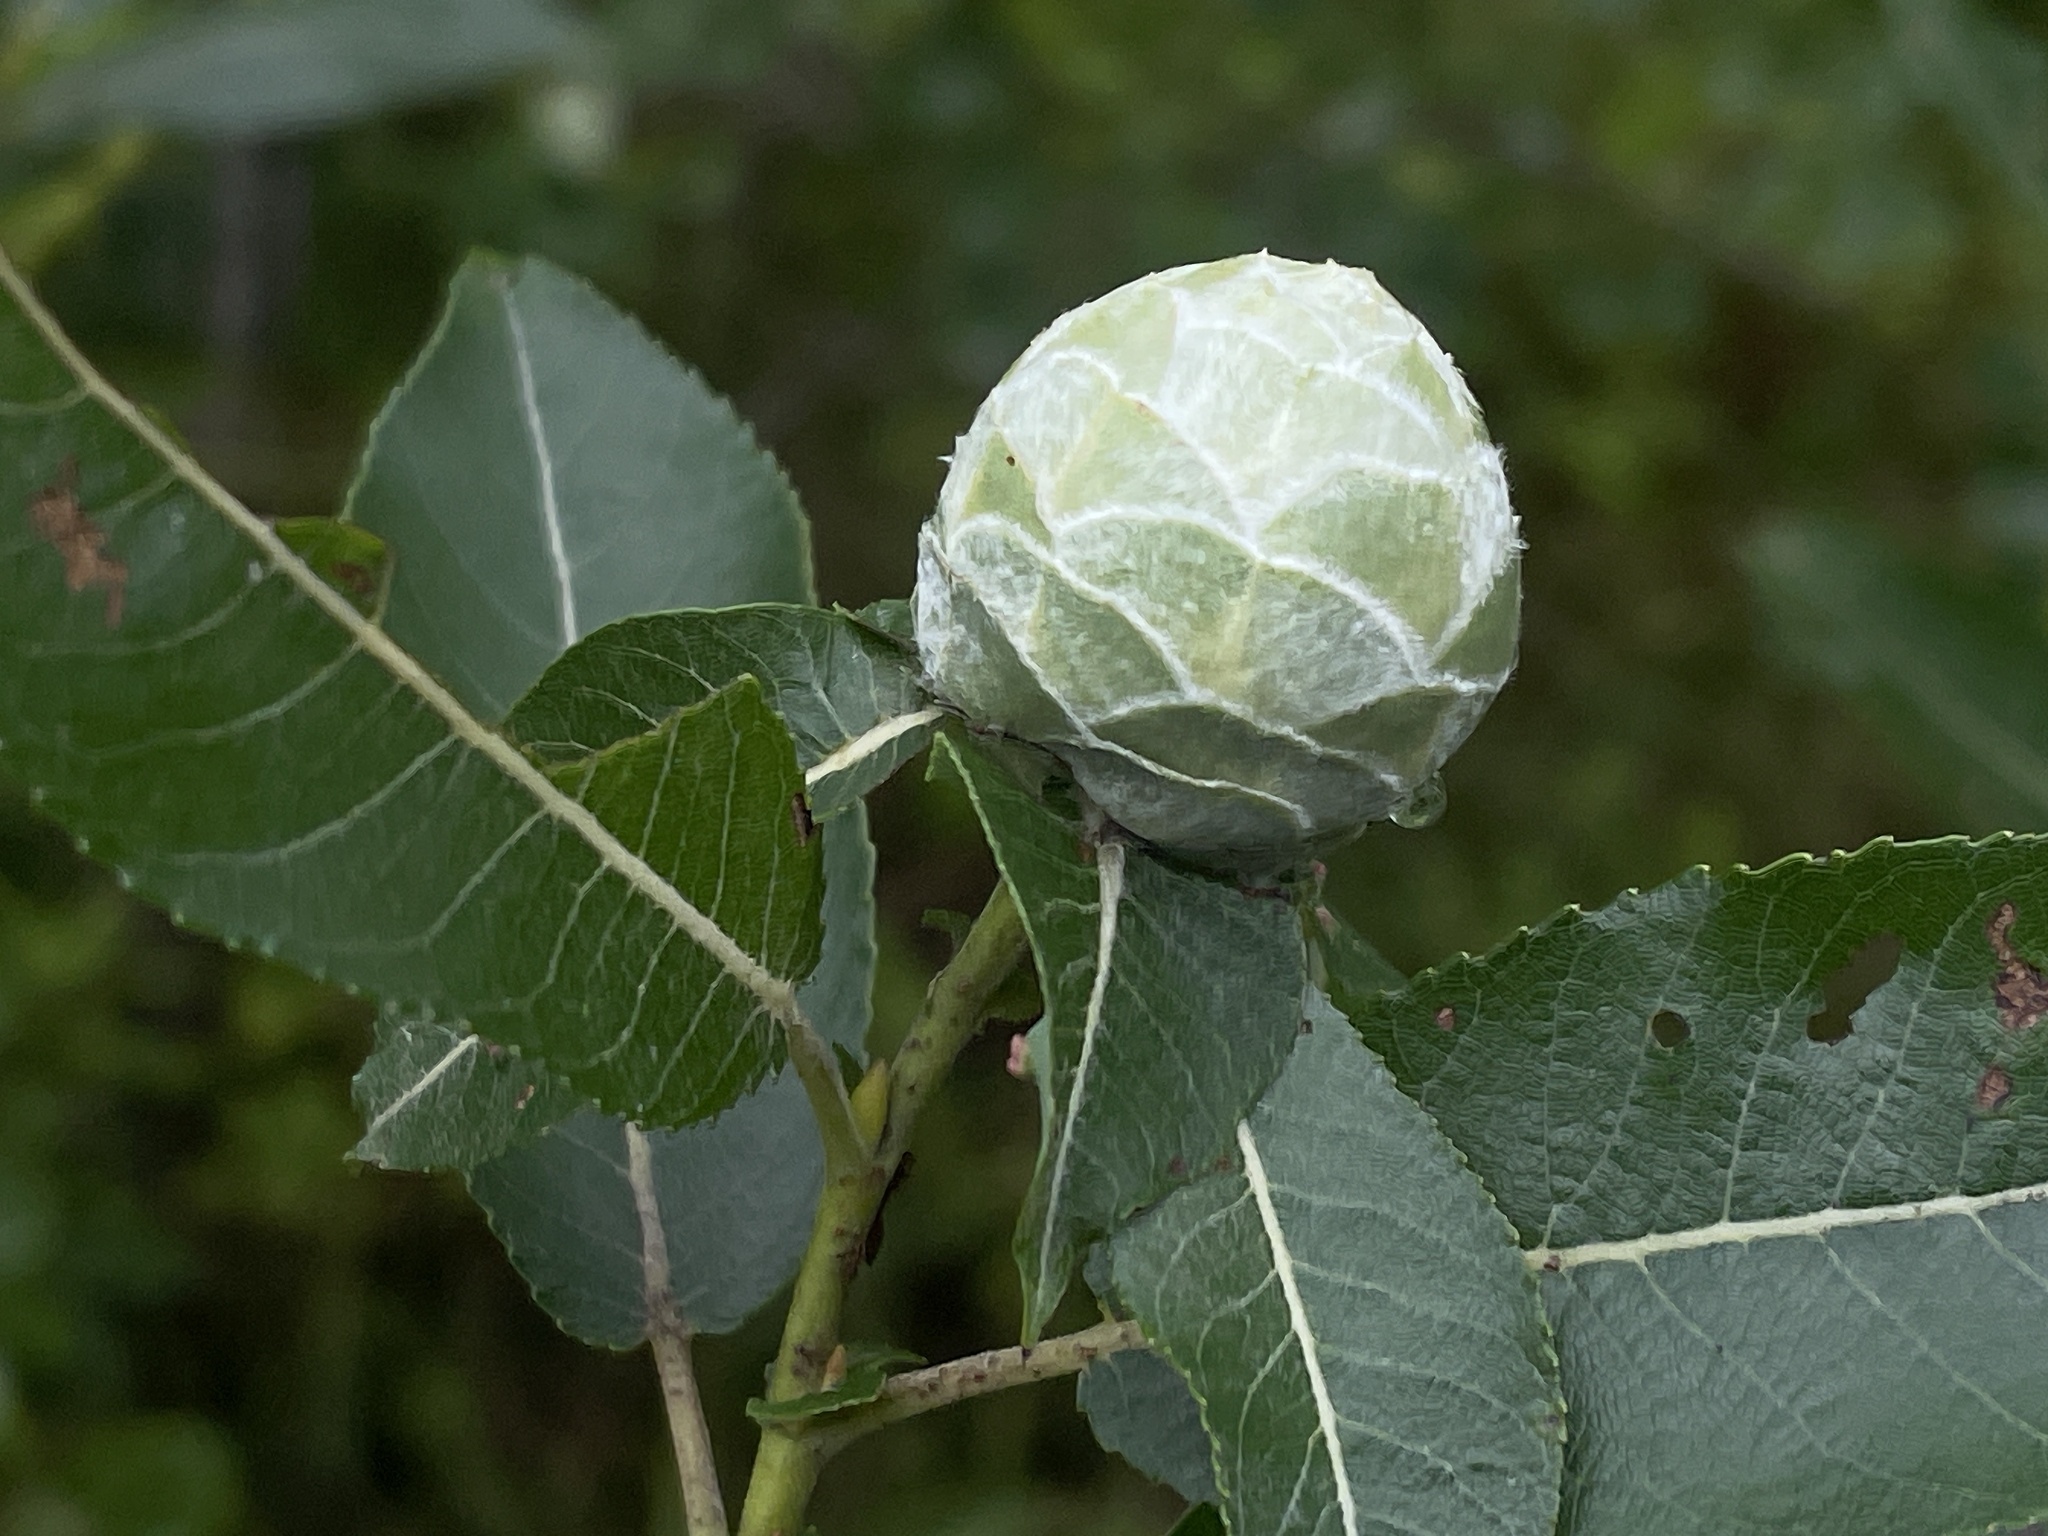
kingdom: Animalia
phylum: Arthropoda
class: Insecta
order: Diptera
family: Cecidomyiidae
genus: Rabdophaga
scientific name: Rabdophaga strobiloides
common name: Willow pinecone gall midge
